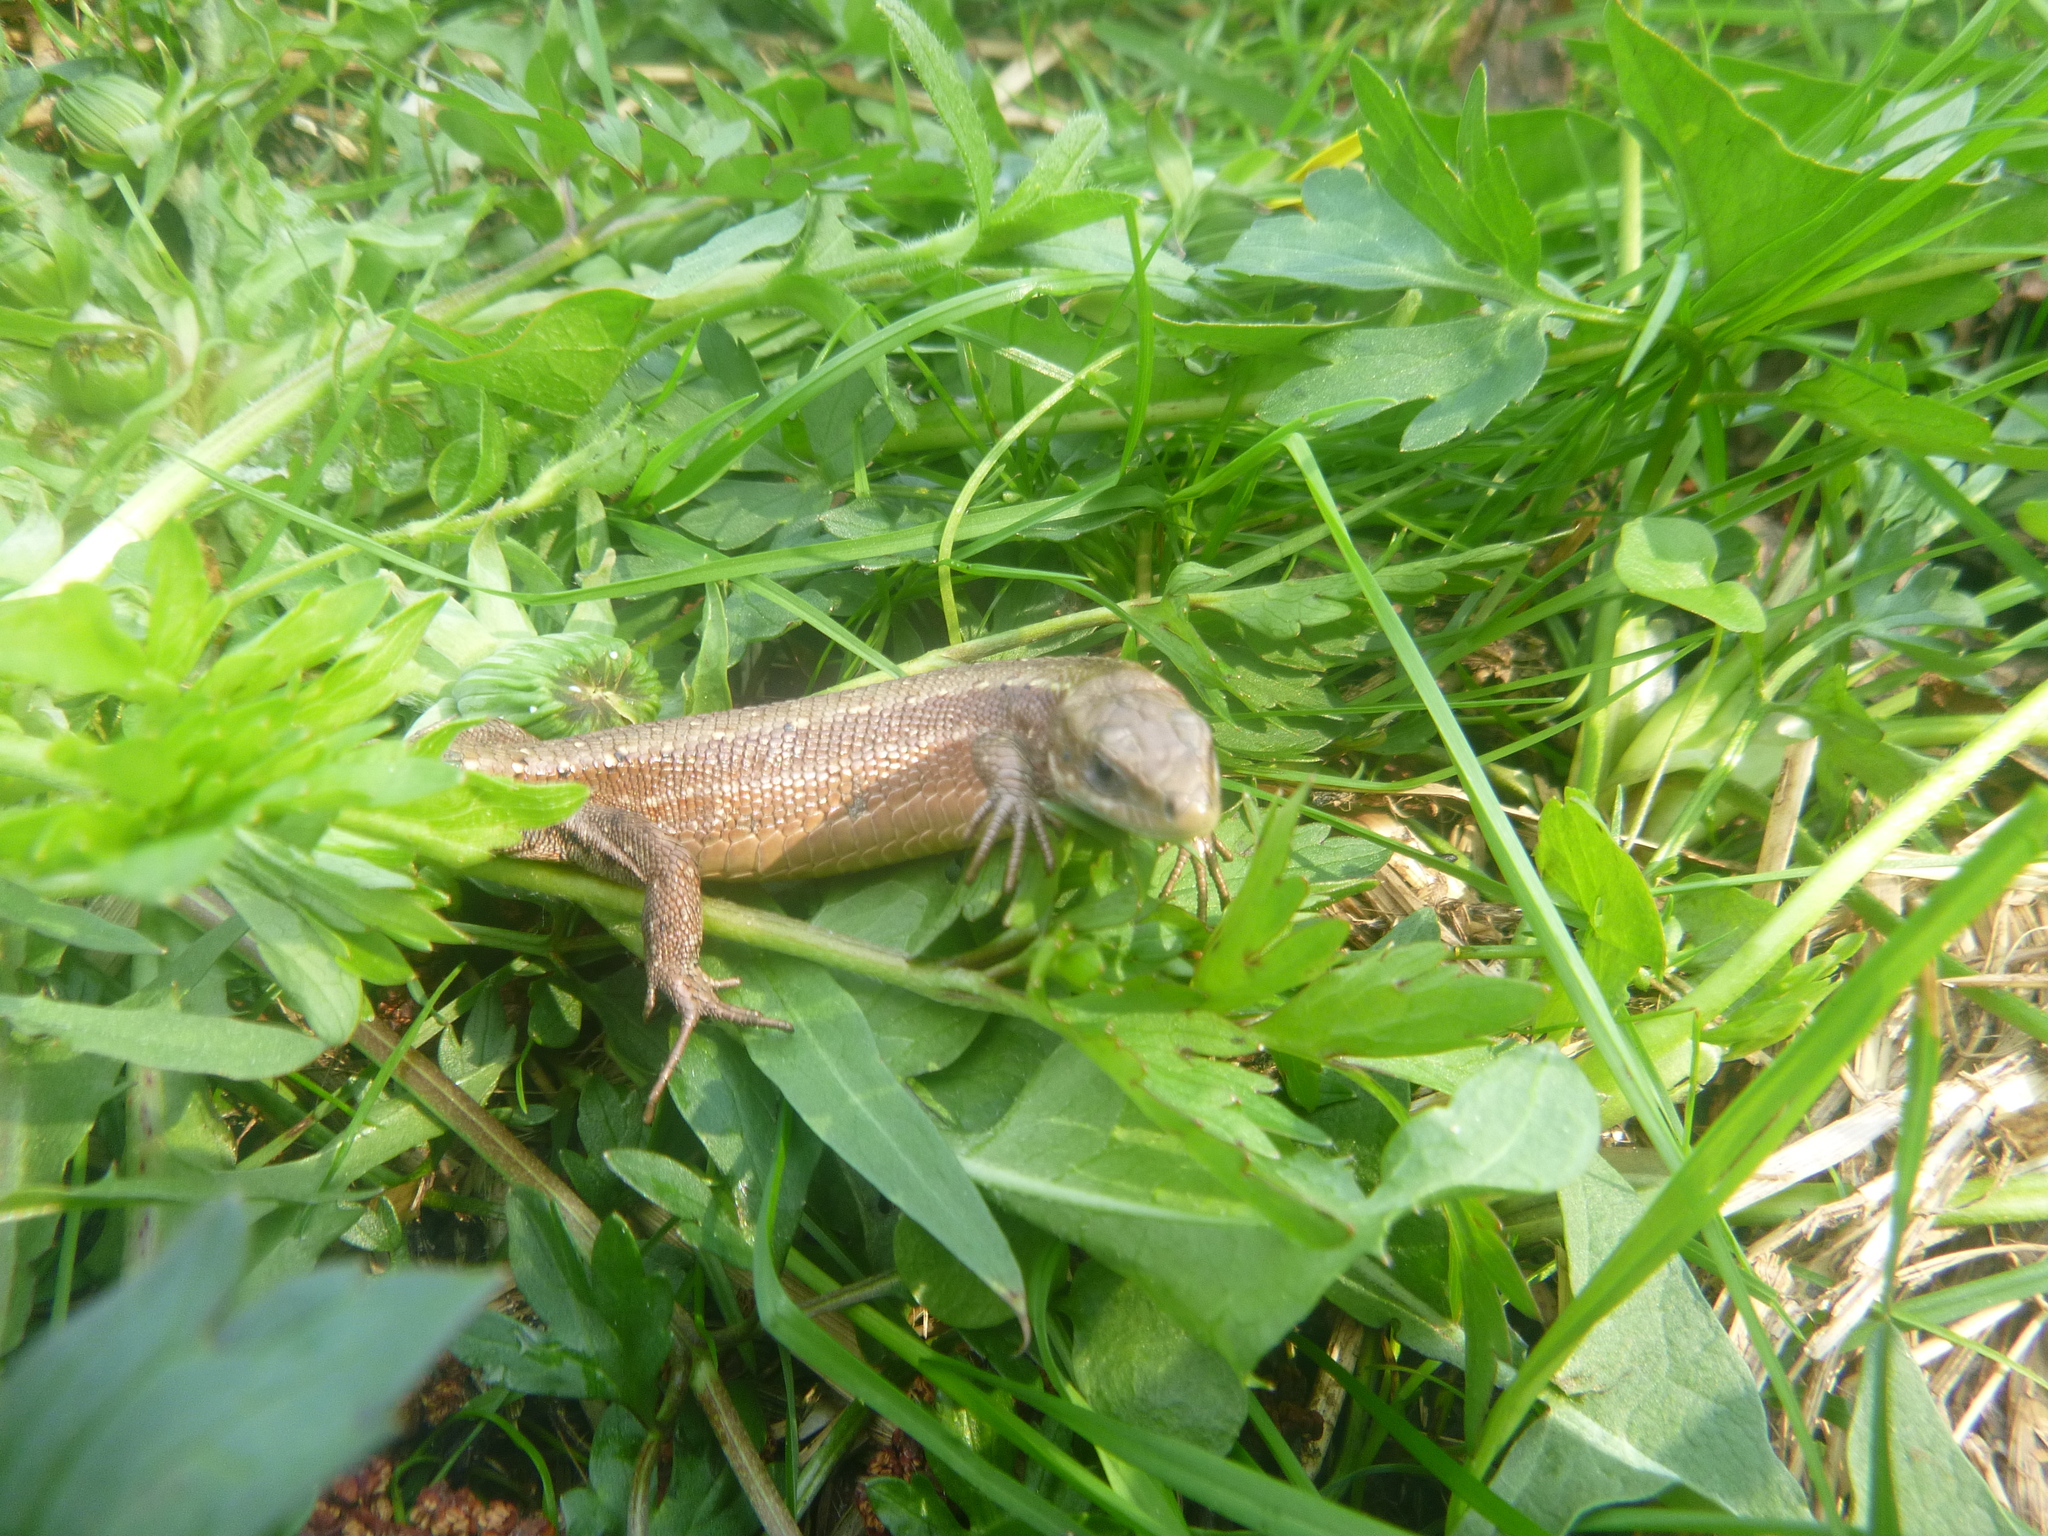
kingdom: Animalia
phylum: Chordata
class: Squamata
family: Lacertidae
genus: Zootoca
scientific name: Zootoca vivipara
